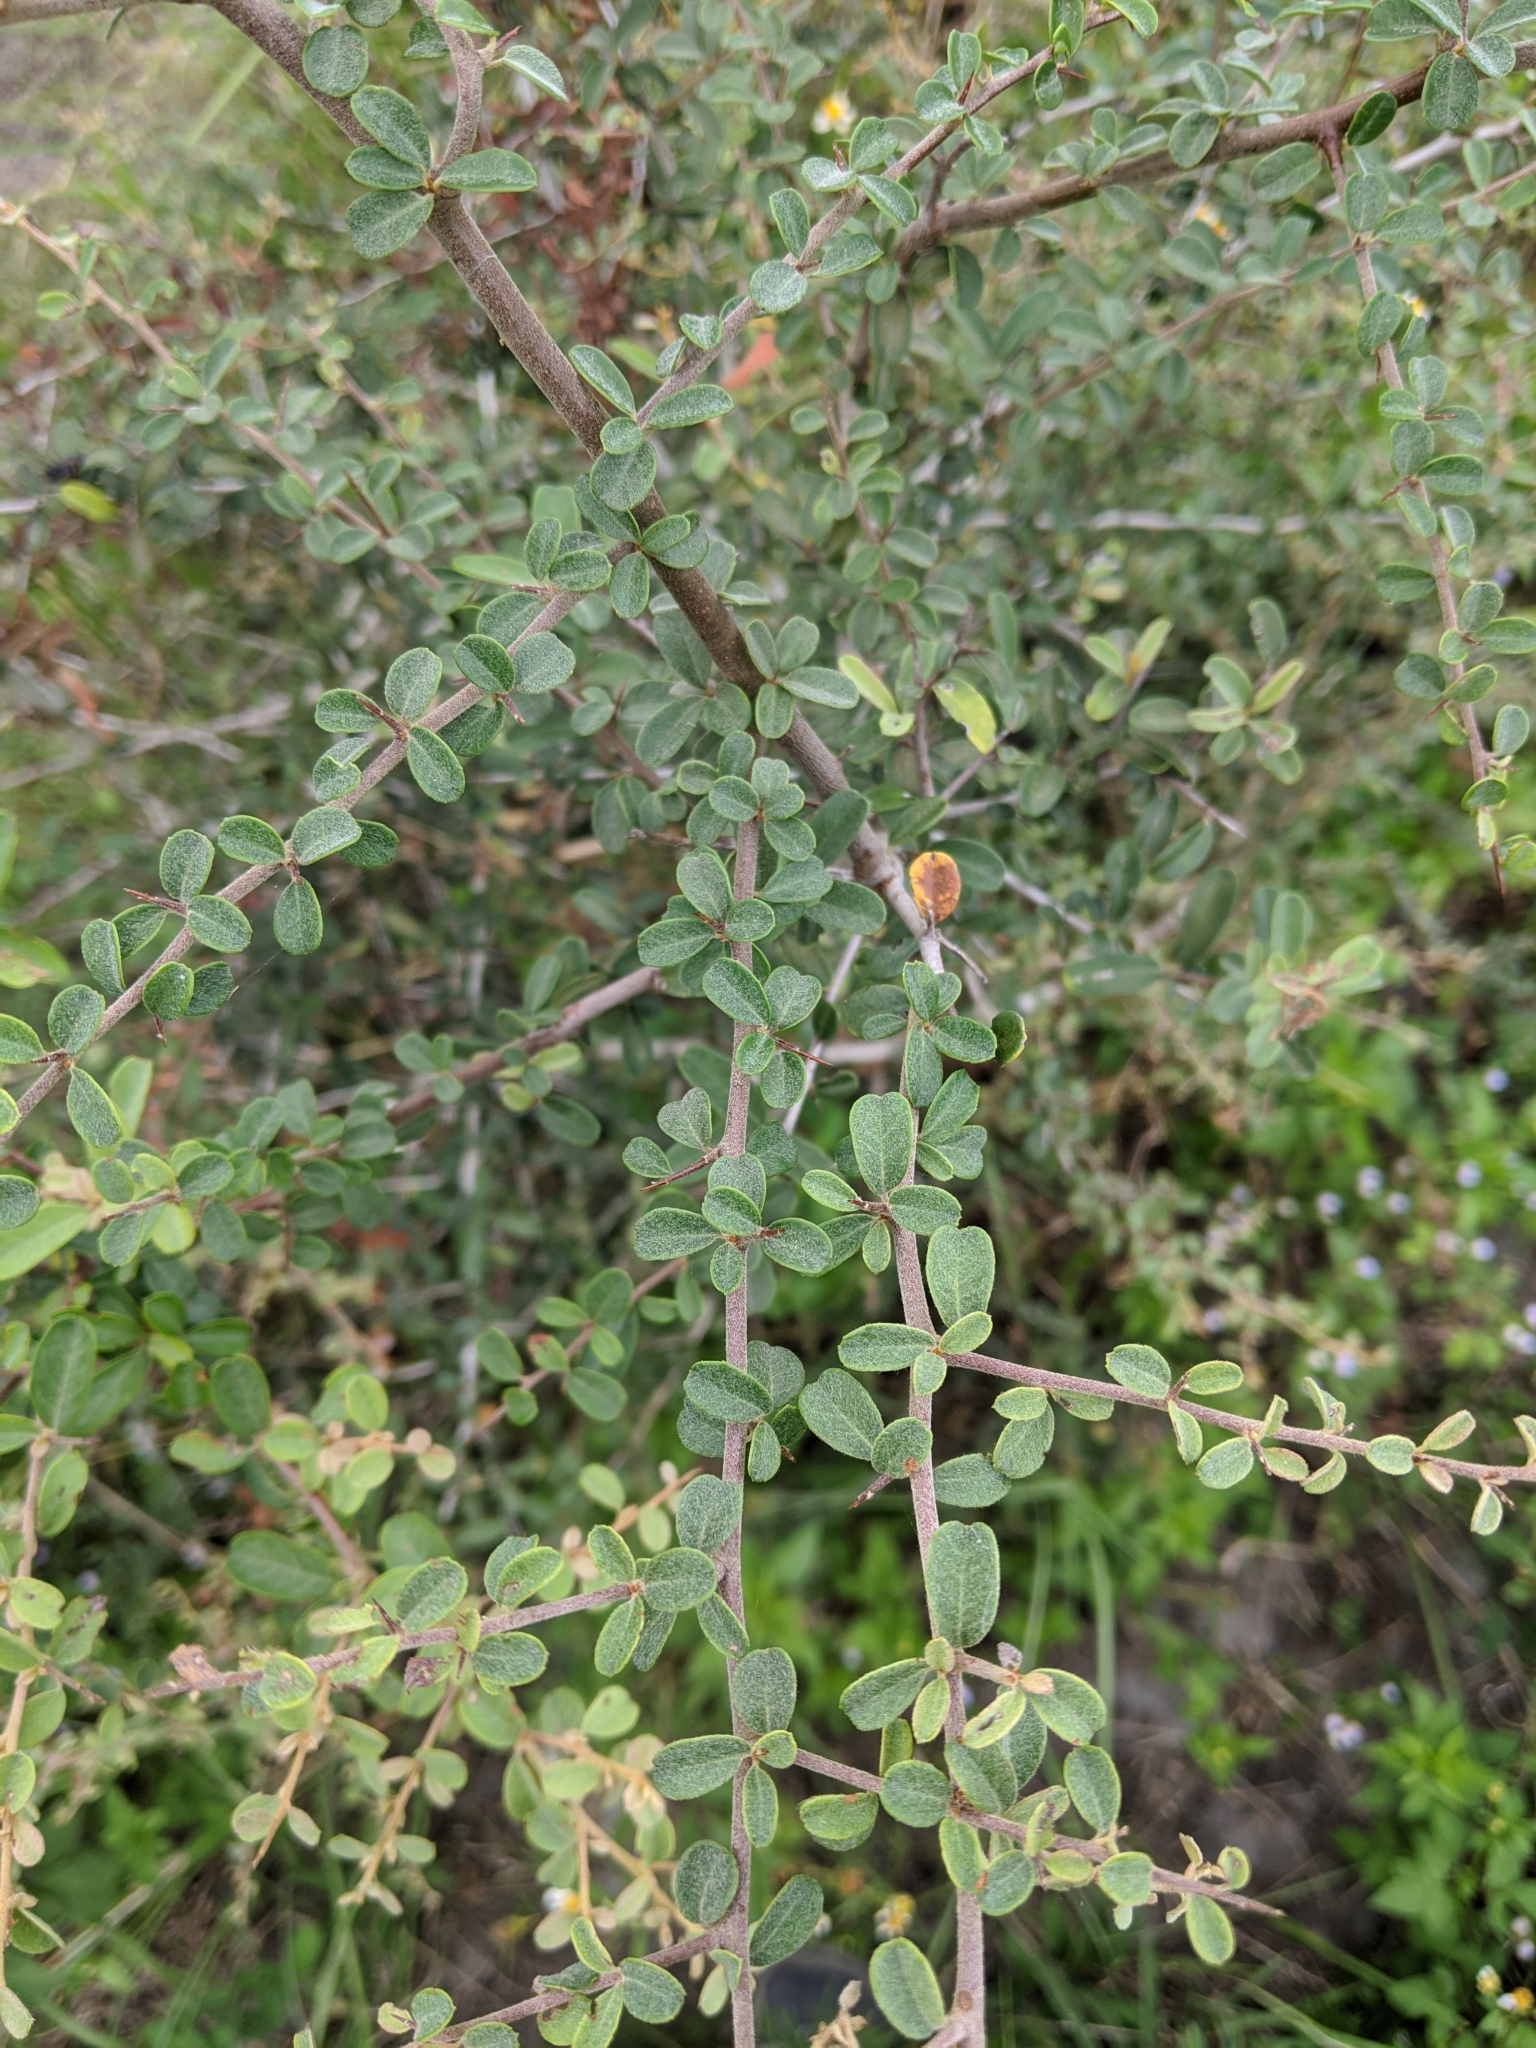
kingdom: Plantae
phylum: Tracheophyta
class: Magnoliopsida
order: Rosales
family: Rosaceae
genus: Pyracantha
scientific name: Pyracantha koidzumii
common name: Formosa firethorn
